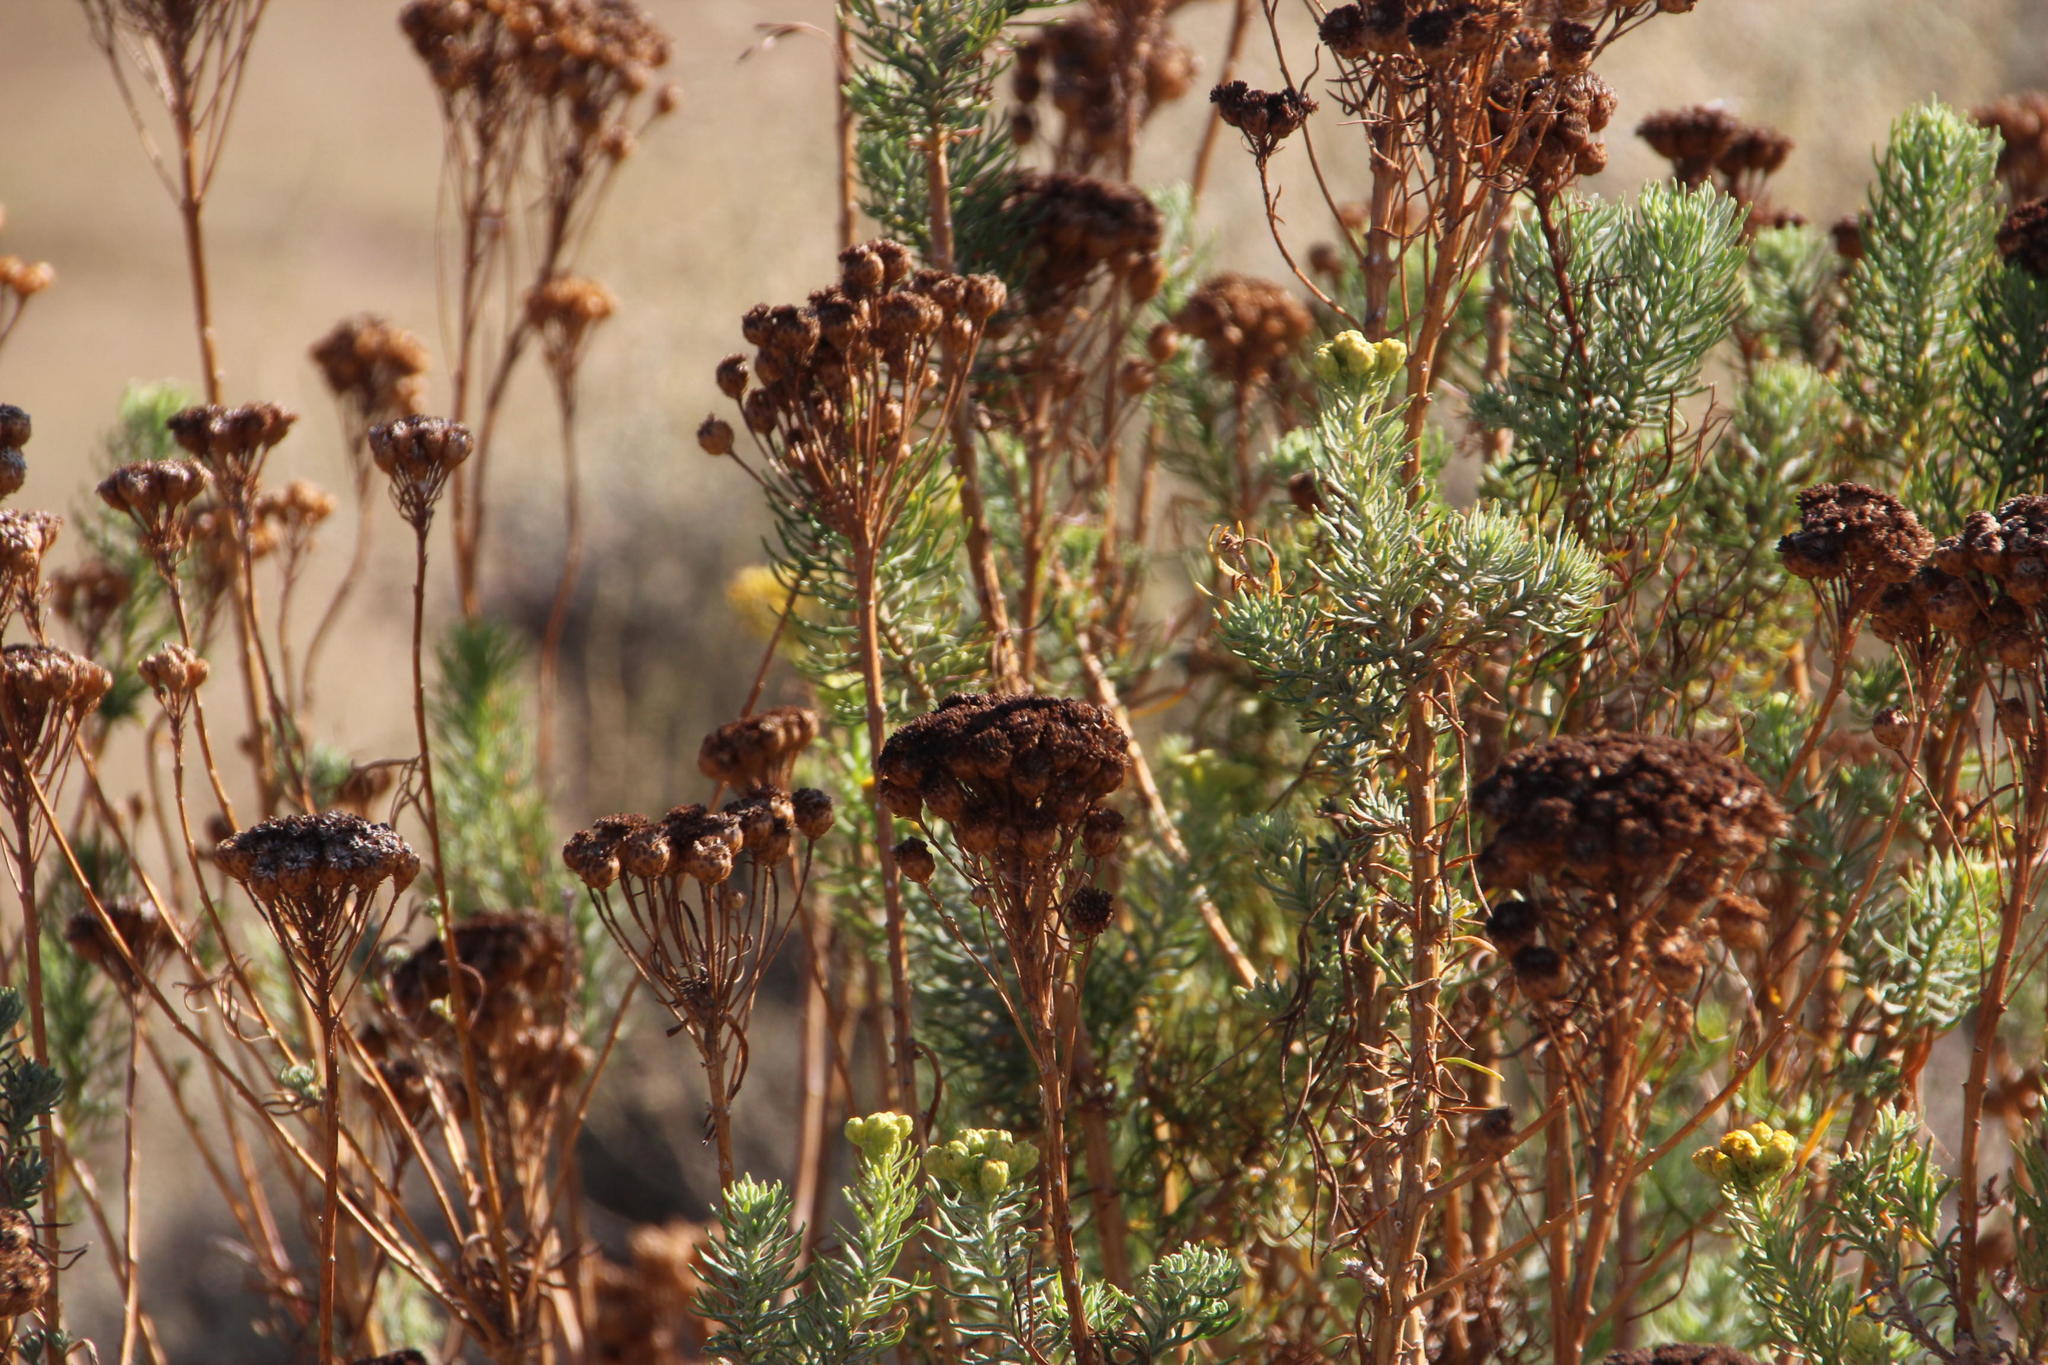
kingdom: Plantae
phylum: Tracheophyta
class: Magnoliopsida
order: Asterales
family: Asteraceae
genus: Athanasia
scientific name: Athanasia crithmifolia
